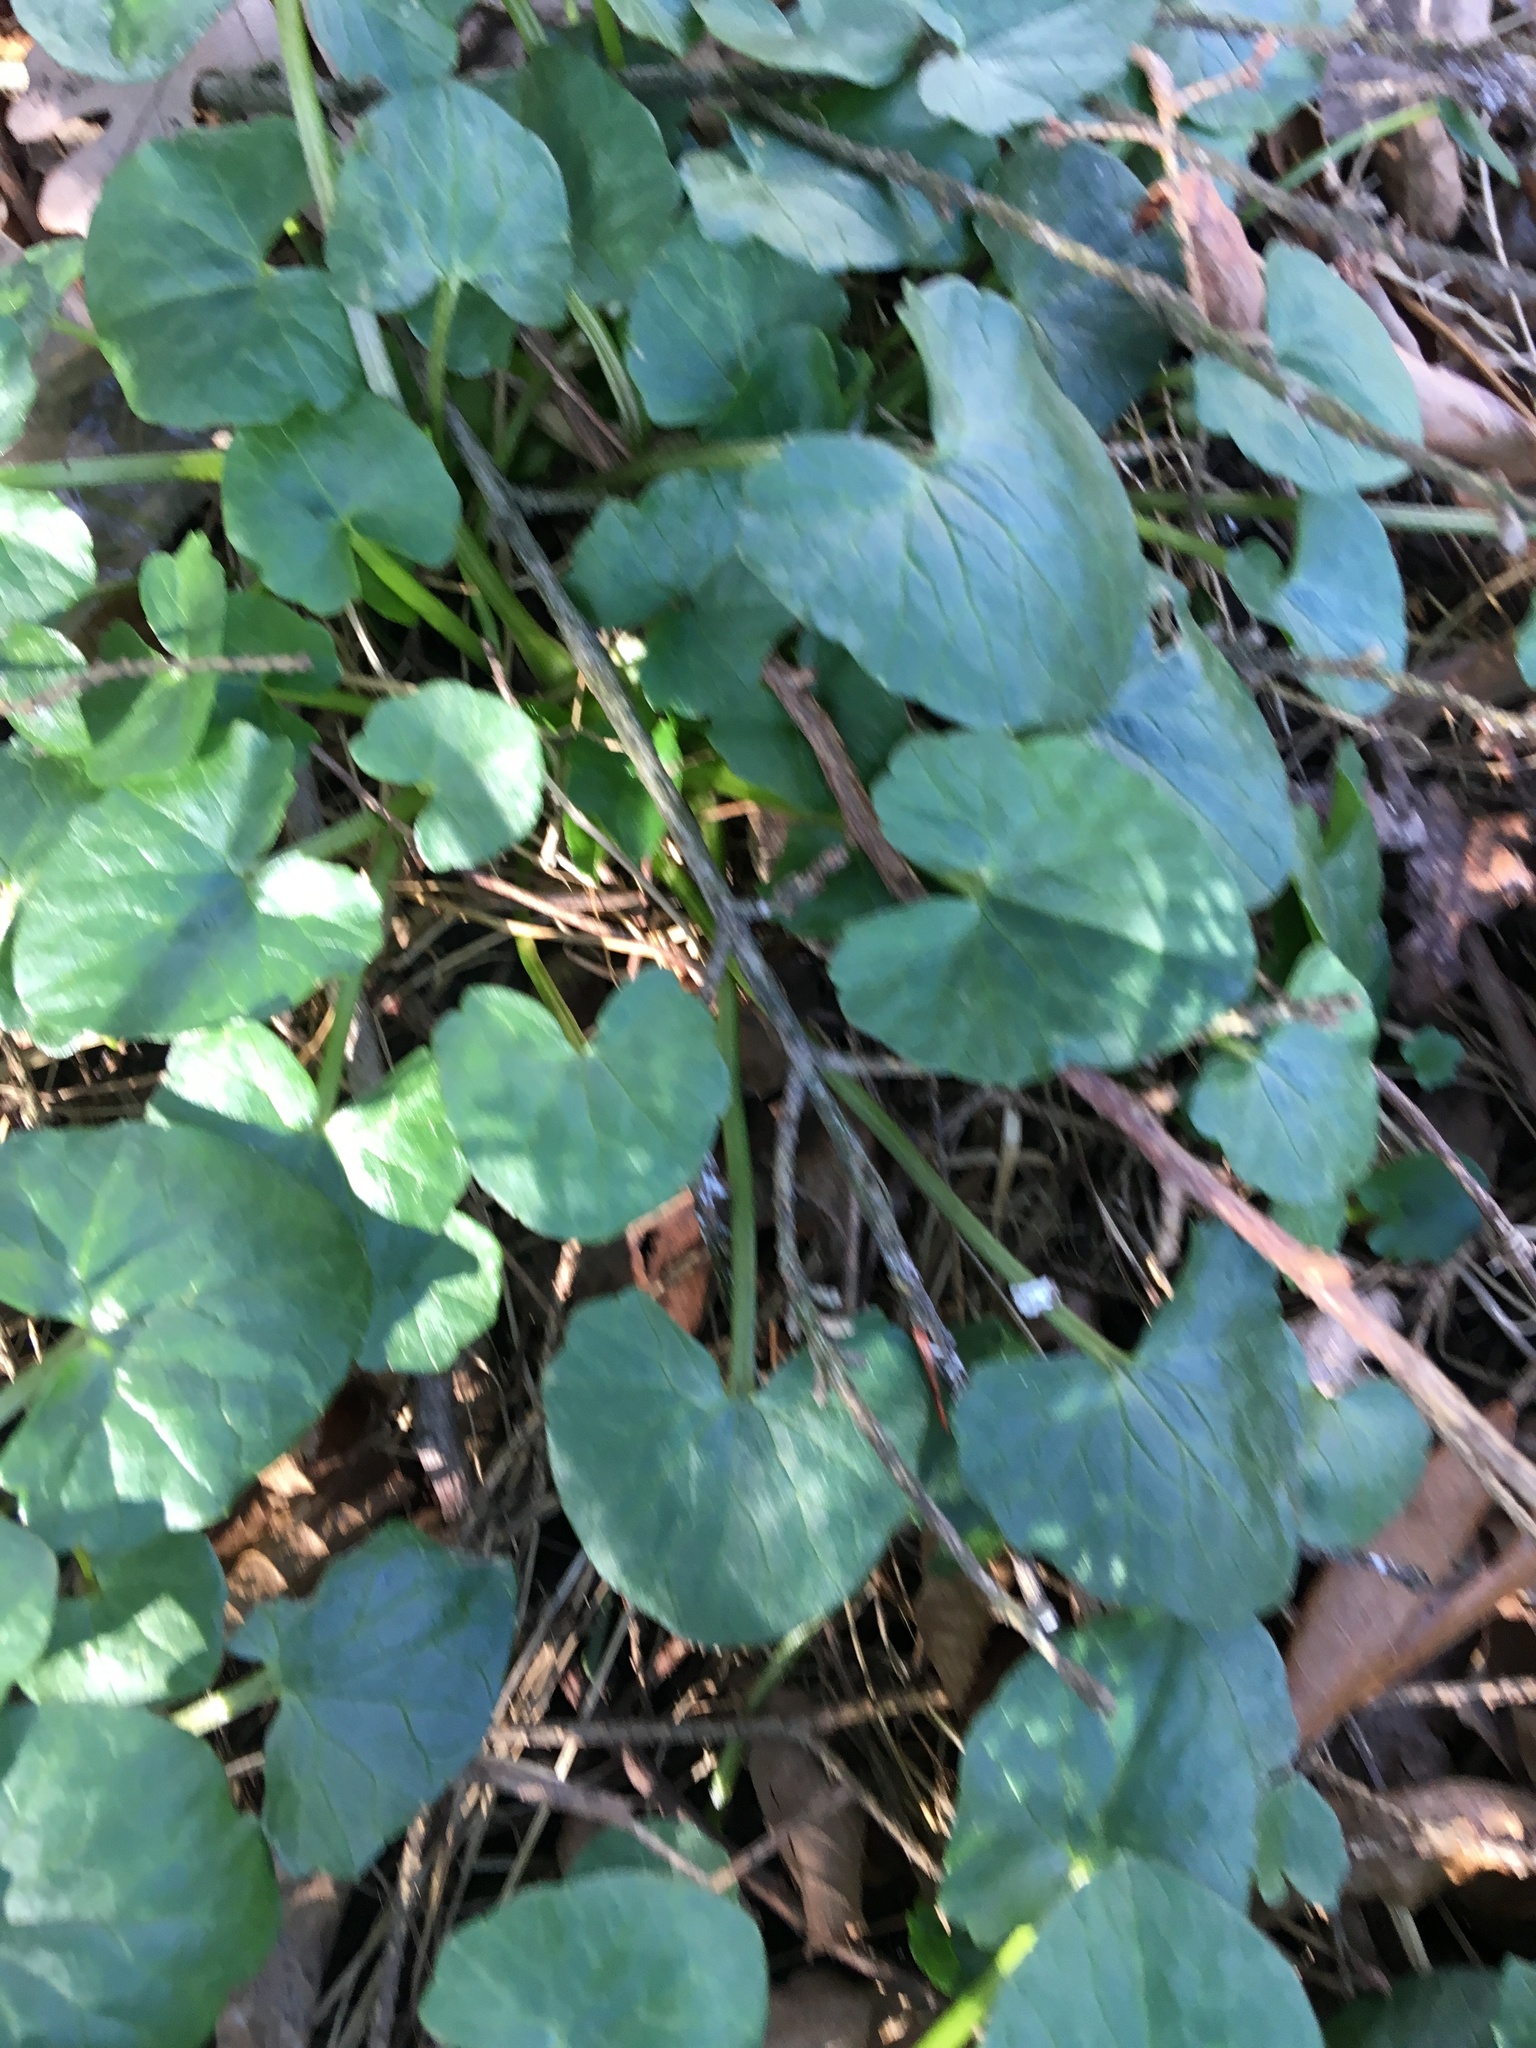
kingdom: Plantae
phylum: Tracheophyta
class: Magnoliopsida
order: Ranunculales
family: Ranunculaceae
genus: Ficaria
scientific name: Ficaria verna
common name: Lesser celandine
